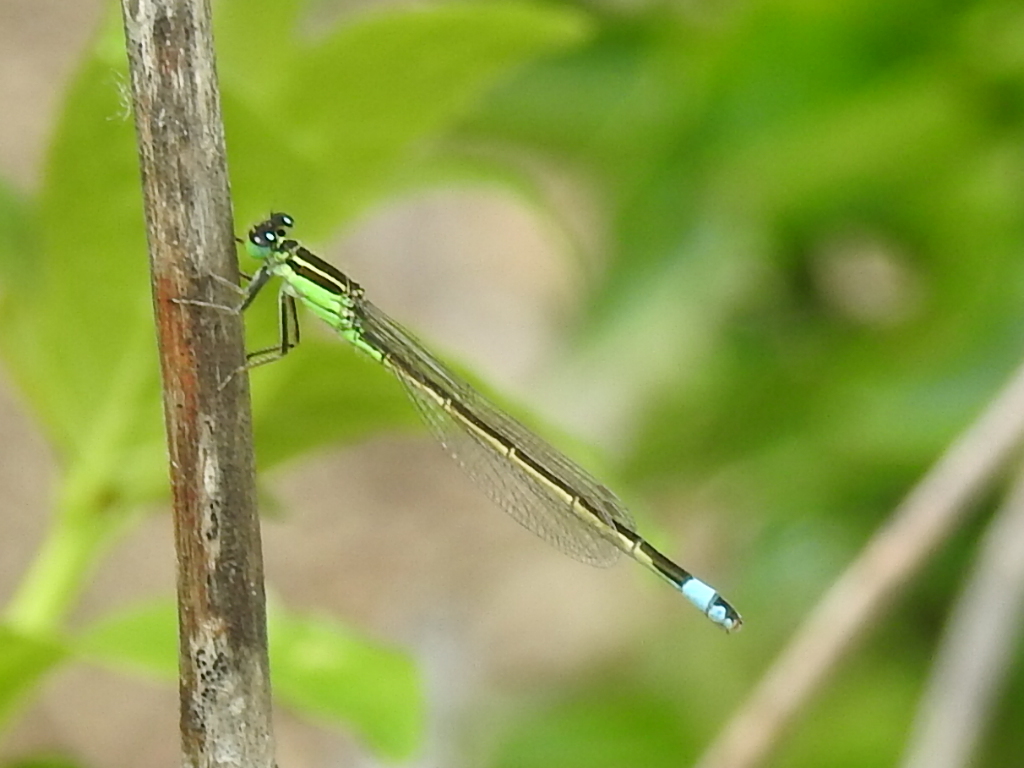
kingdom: Animalia
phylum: Arthropoda
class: Insecta
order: Odonata
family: Coenagrionidae
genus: Ischnura
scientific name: Ischnura ramburii
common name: Rambur's forktail
